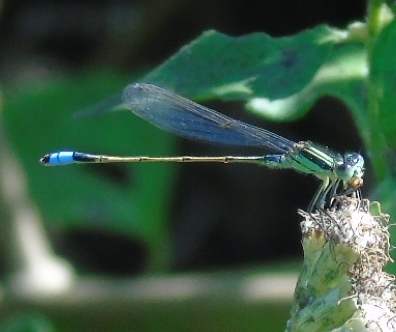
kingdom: Animalia
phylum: Arthropoda
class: Insecta
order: Odonata
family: Coenagrionidae
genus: Ischnura
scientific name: Ischnura ramburii
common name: Rambur's forktail
